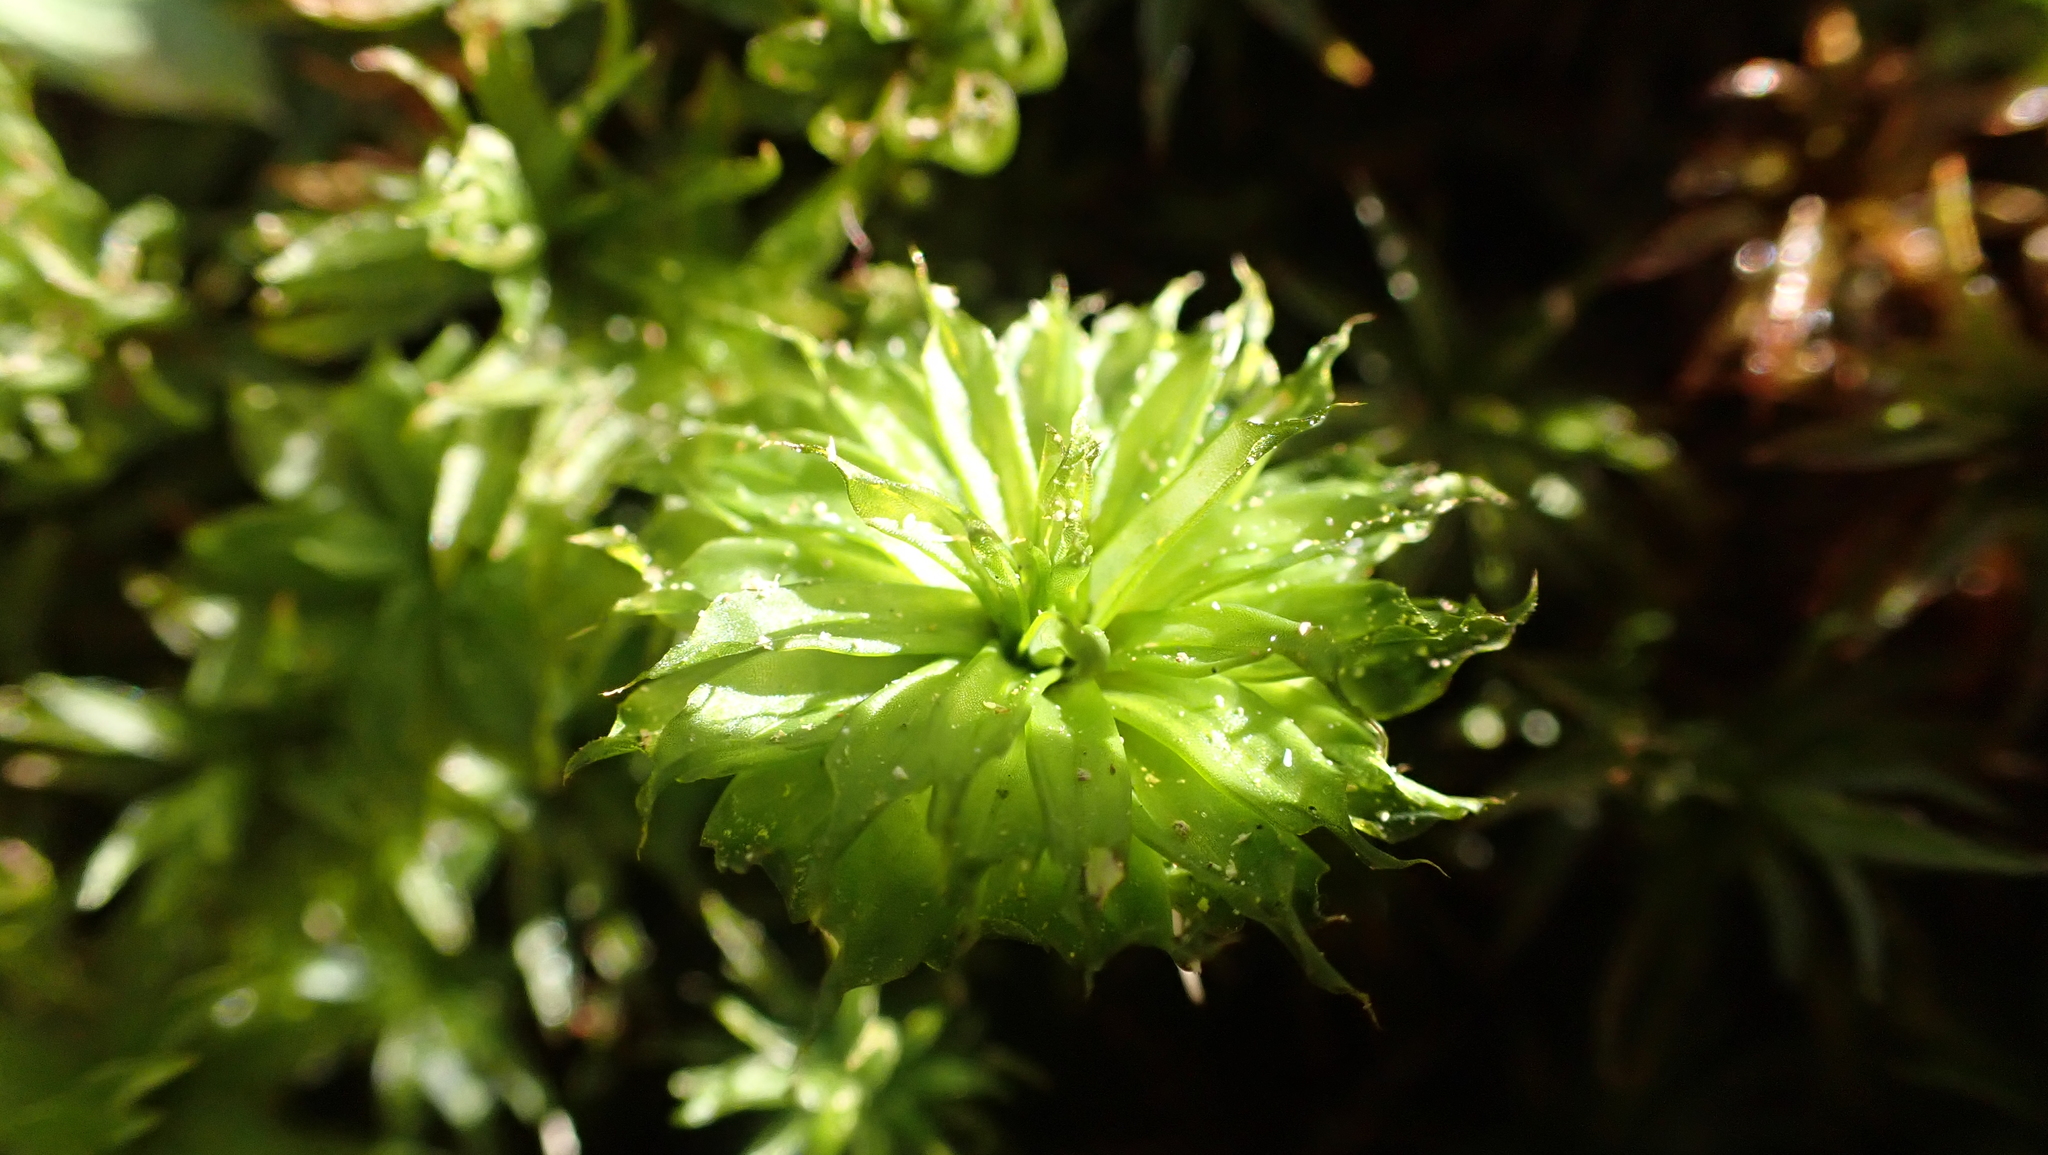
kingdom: Plantae
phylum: Bryophyta
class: Bryopsida
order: Bryales
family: Bryaceae
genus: Rhodobryum
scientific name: Rhodobryum ontariense
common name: Ontario rhodobryum moss
